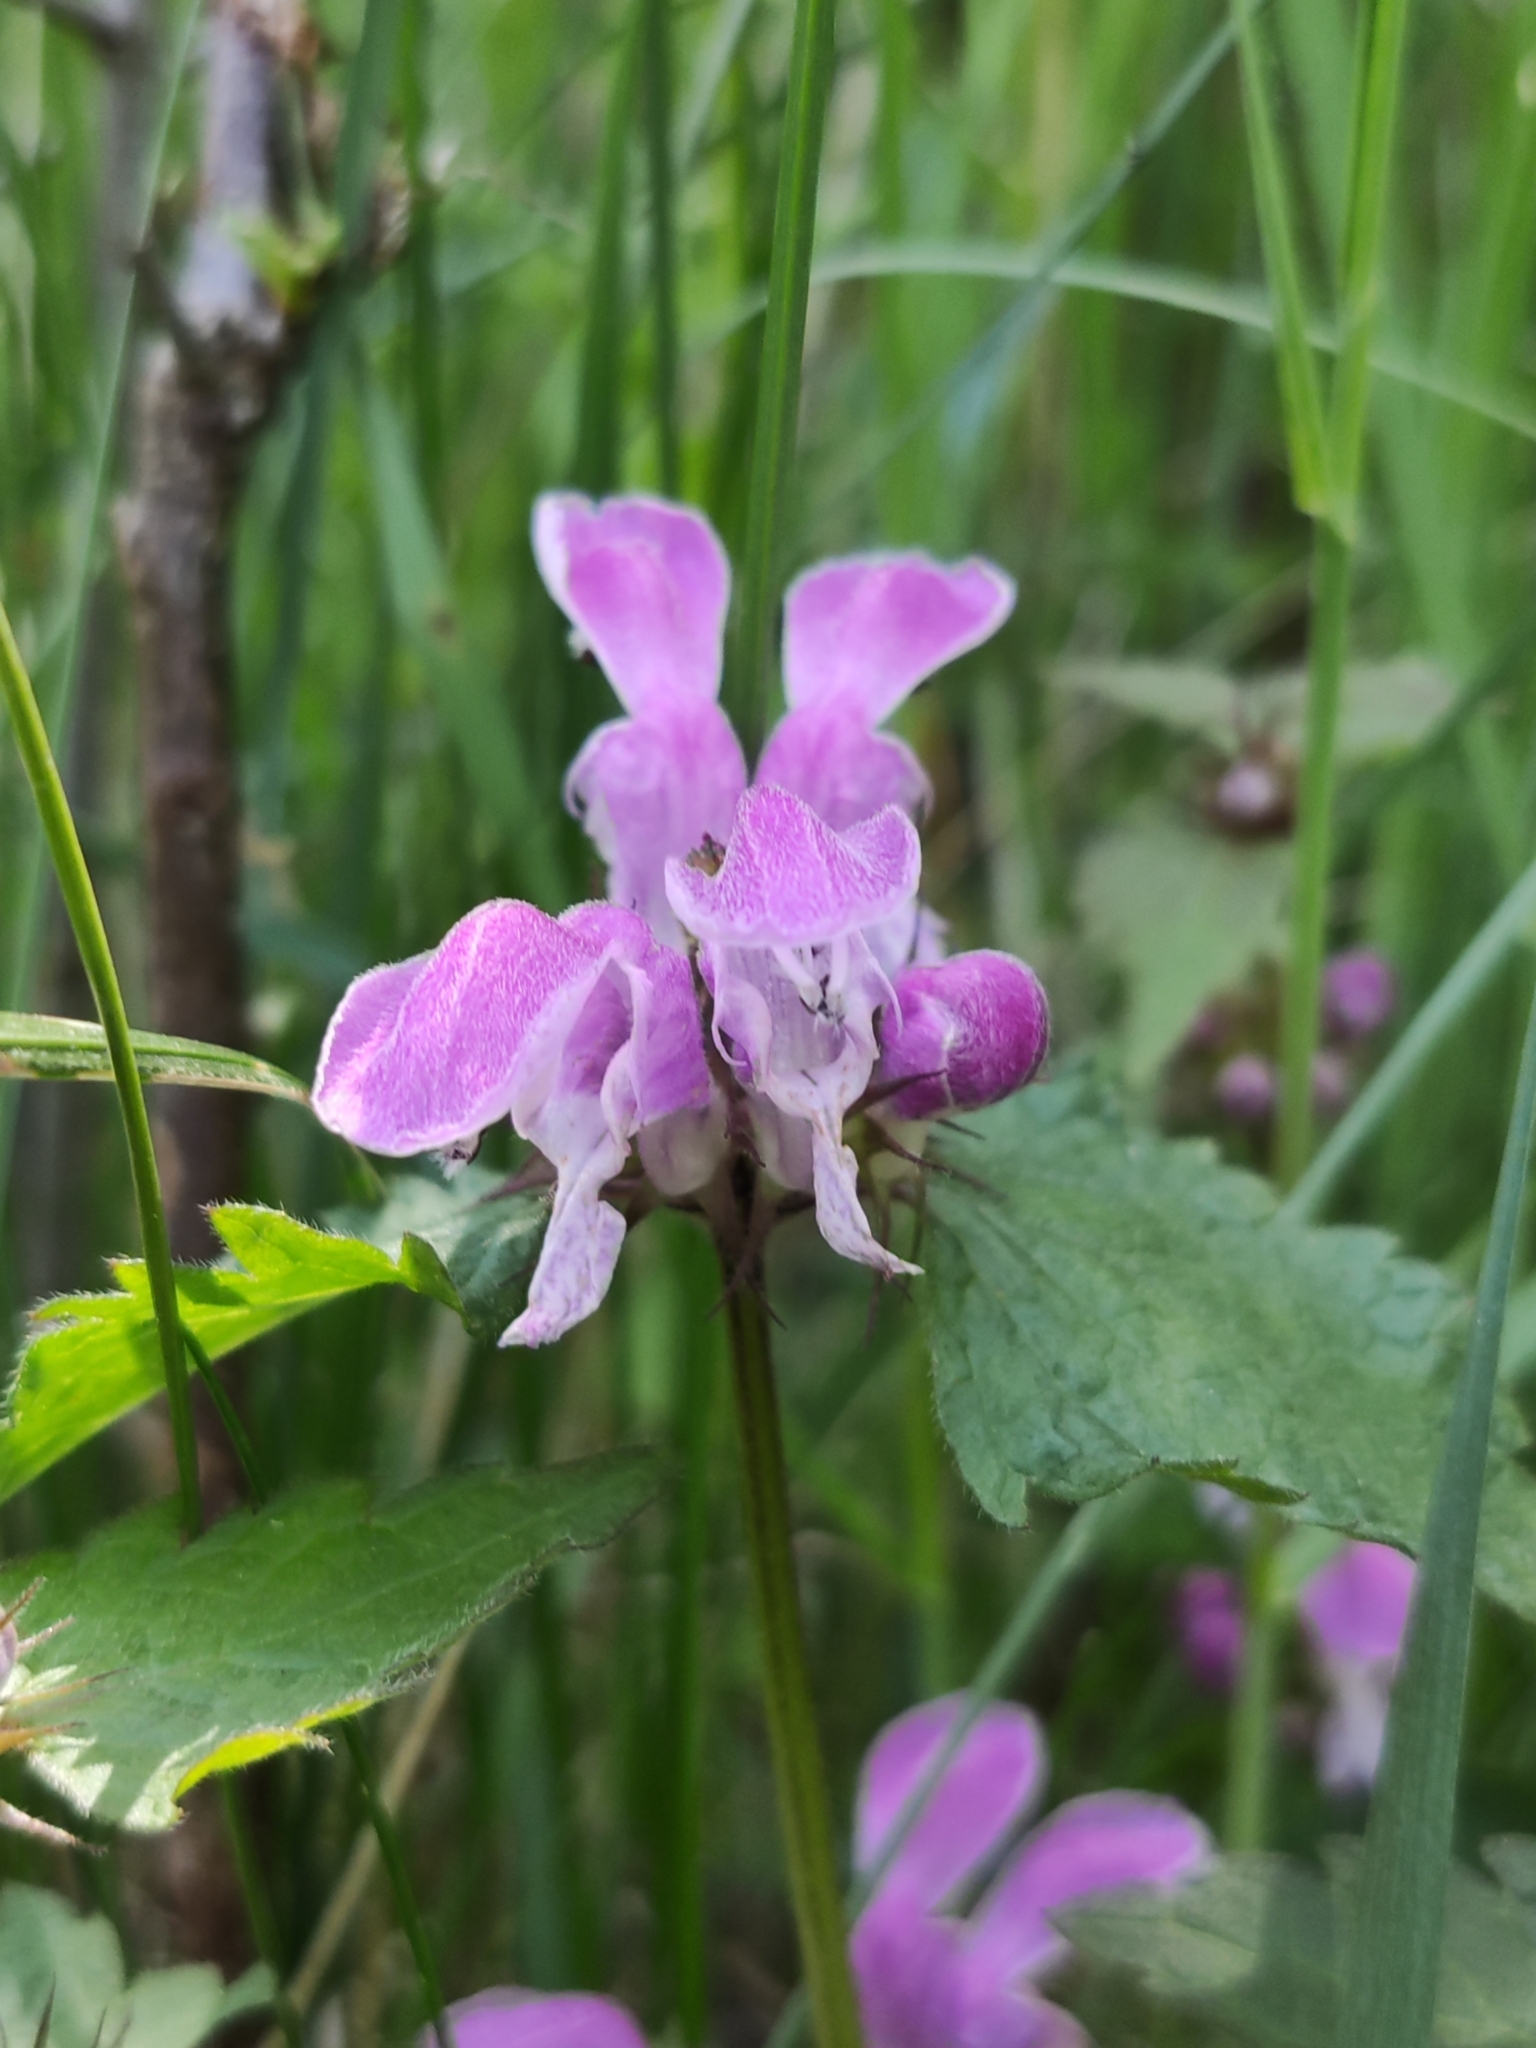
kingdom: Plantae
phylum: Tracheophyta
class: Magnoliopsida
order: Lamiales
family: Lamiaceae
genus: Lamium
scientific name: Lamium maculatum
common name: Spotted dead-nettle
